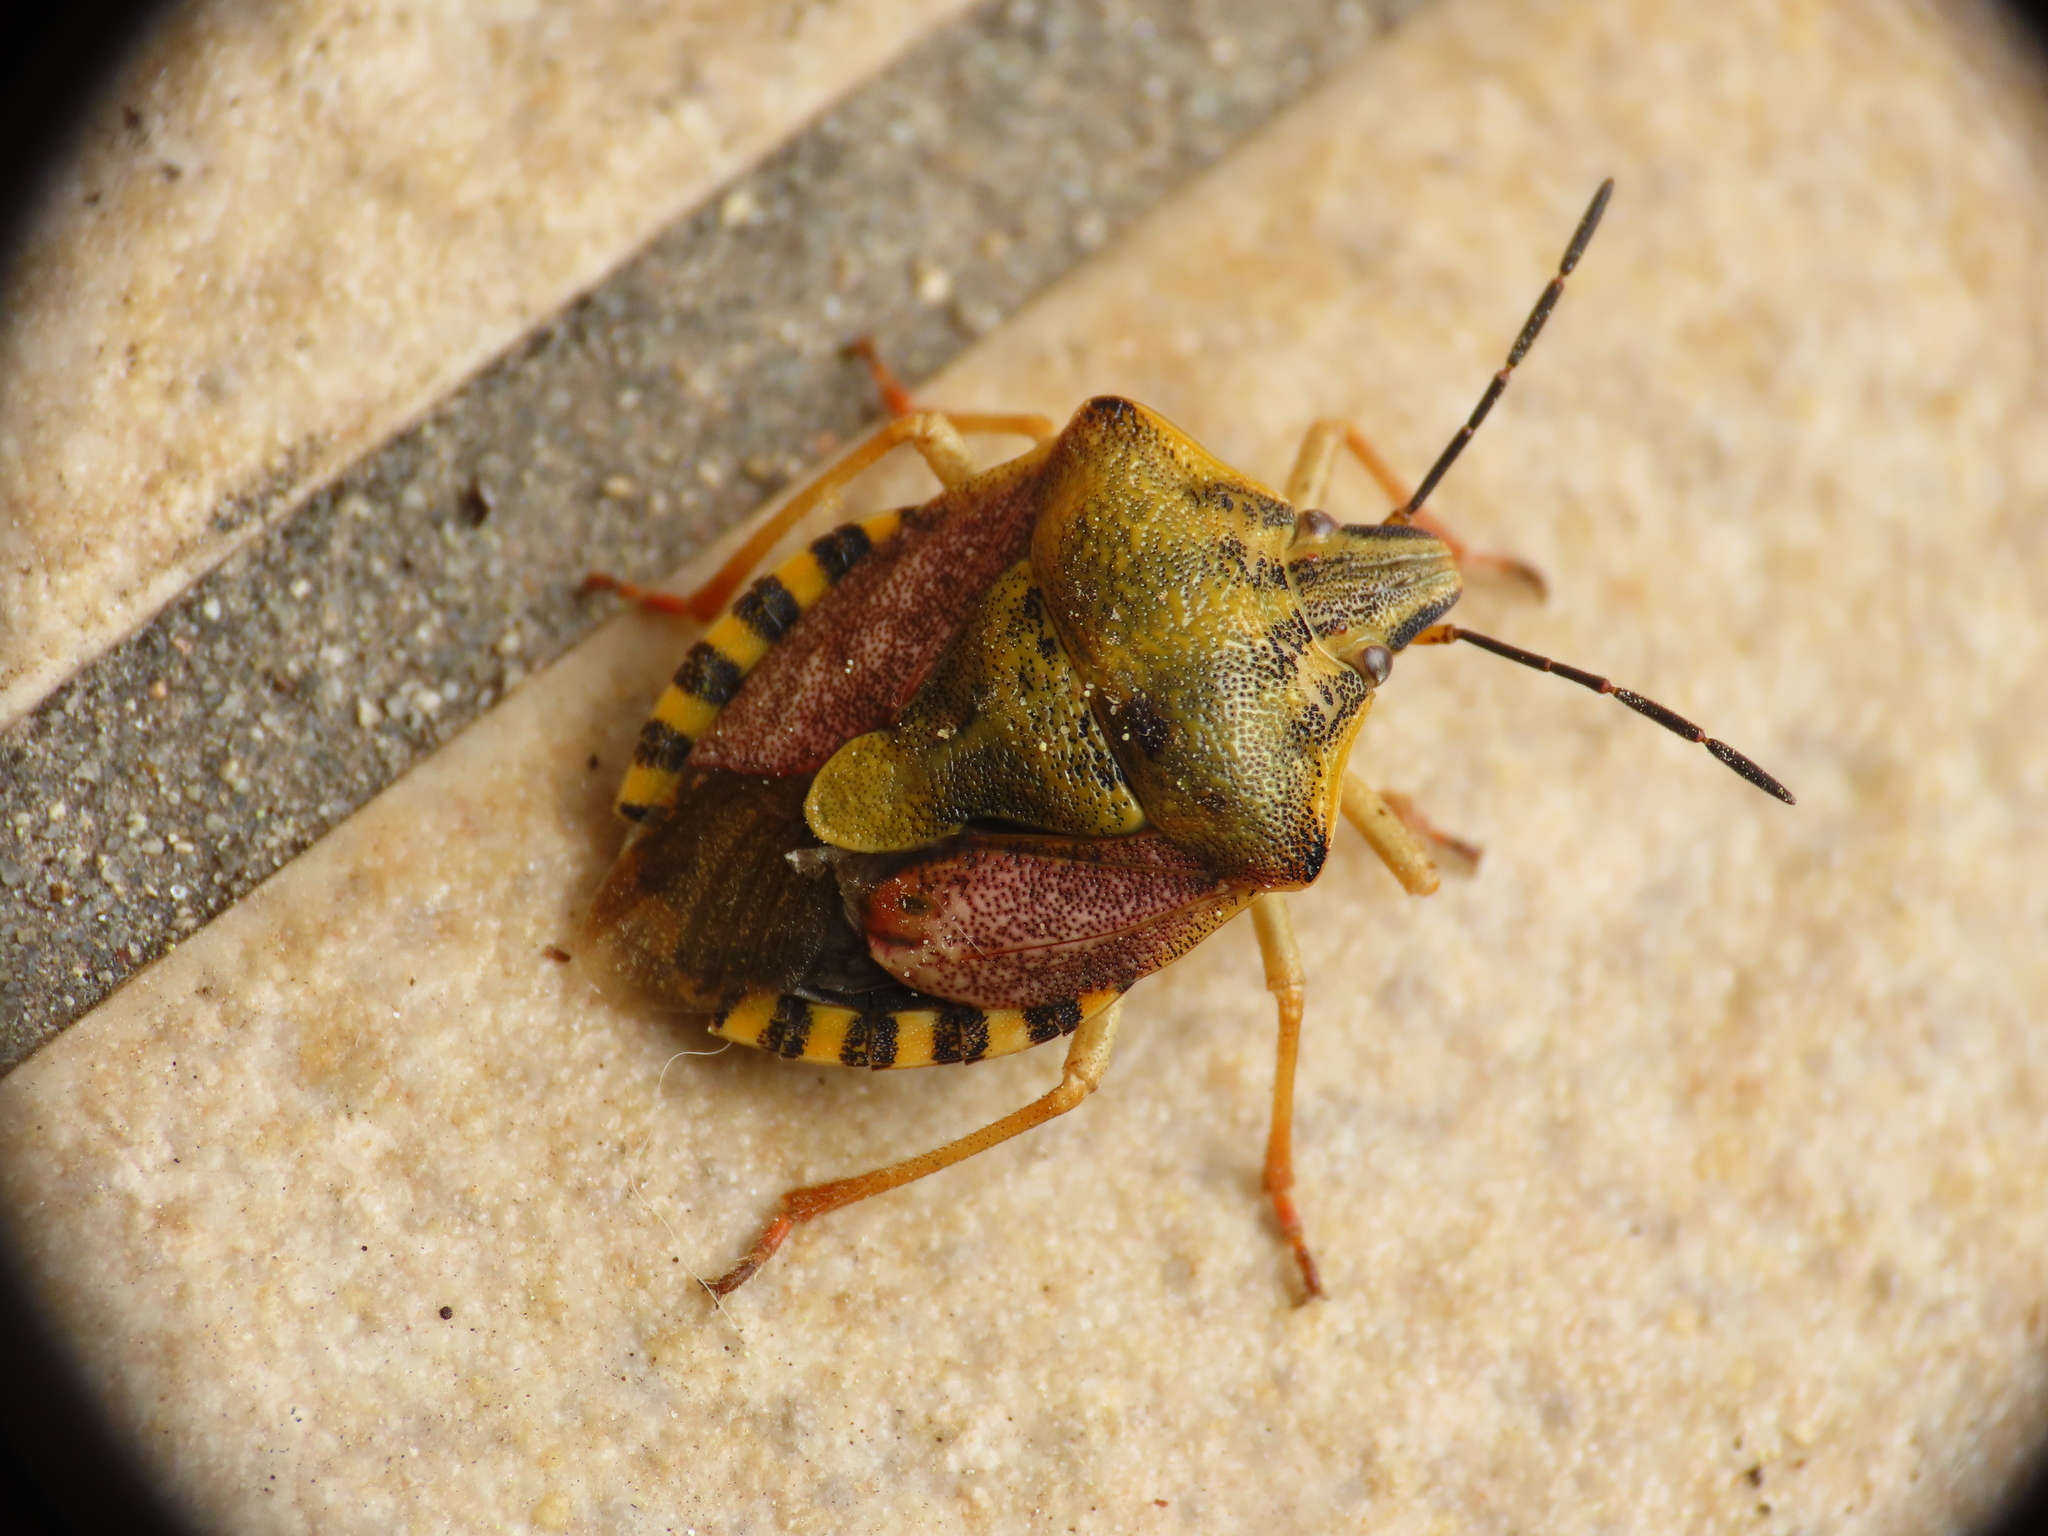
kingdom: Animalia
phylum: Arthropoda
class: Insecta
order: Hemiptera
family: Pentatomidae
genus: Carpocoris
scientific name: Carpocoris purpureipennis
